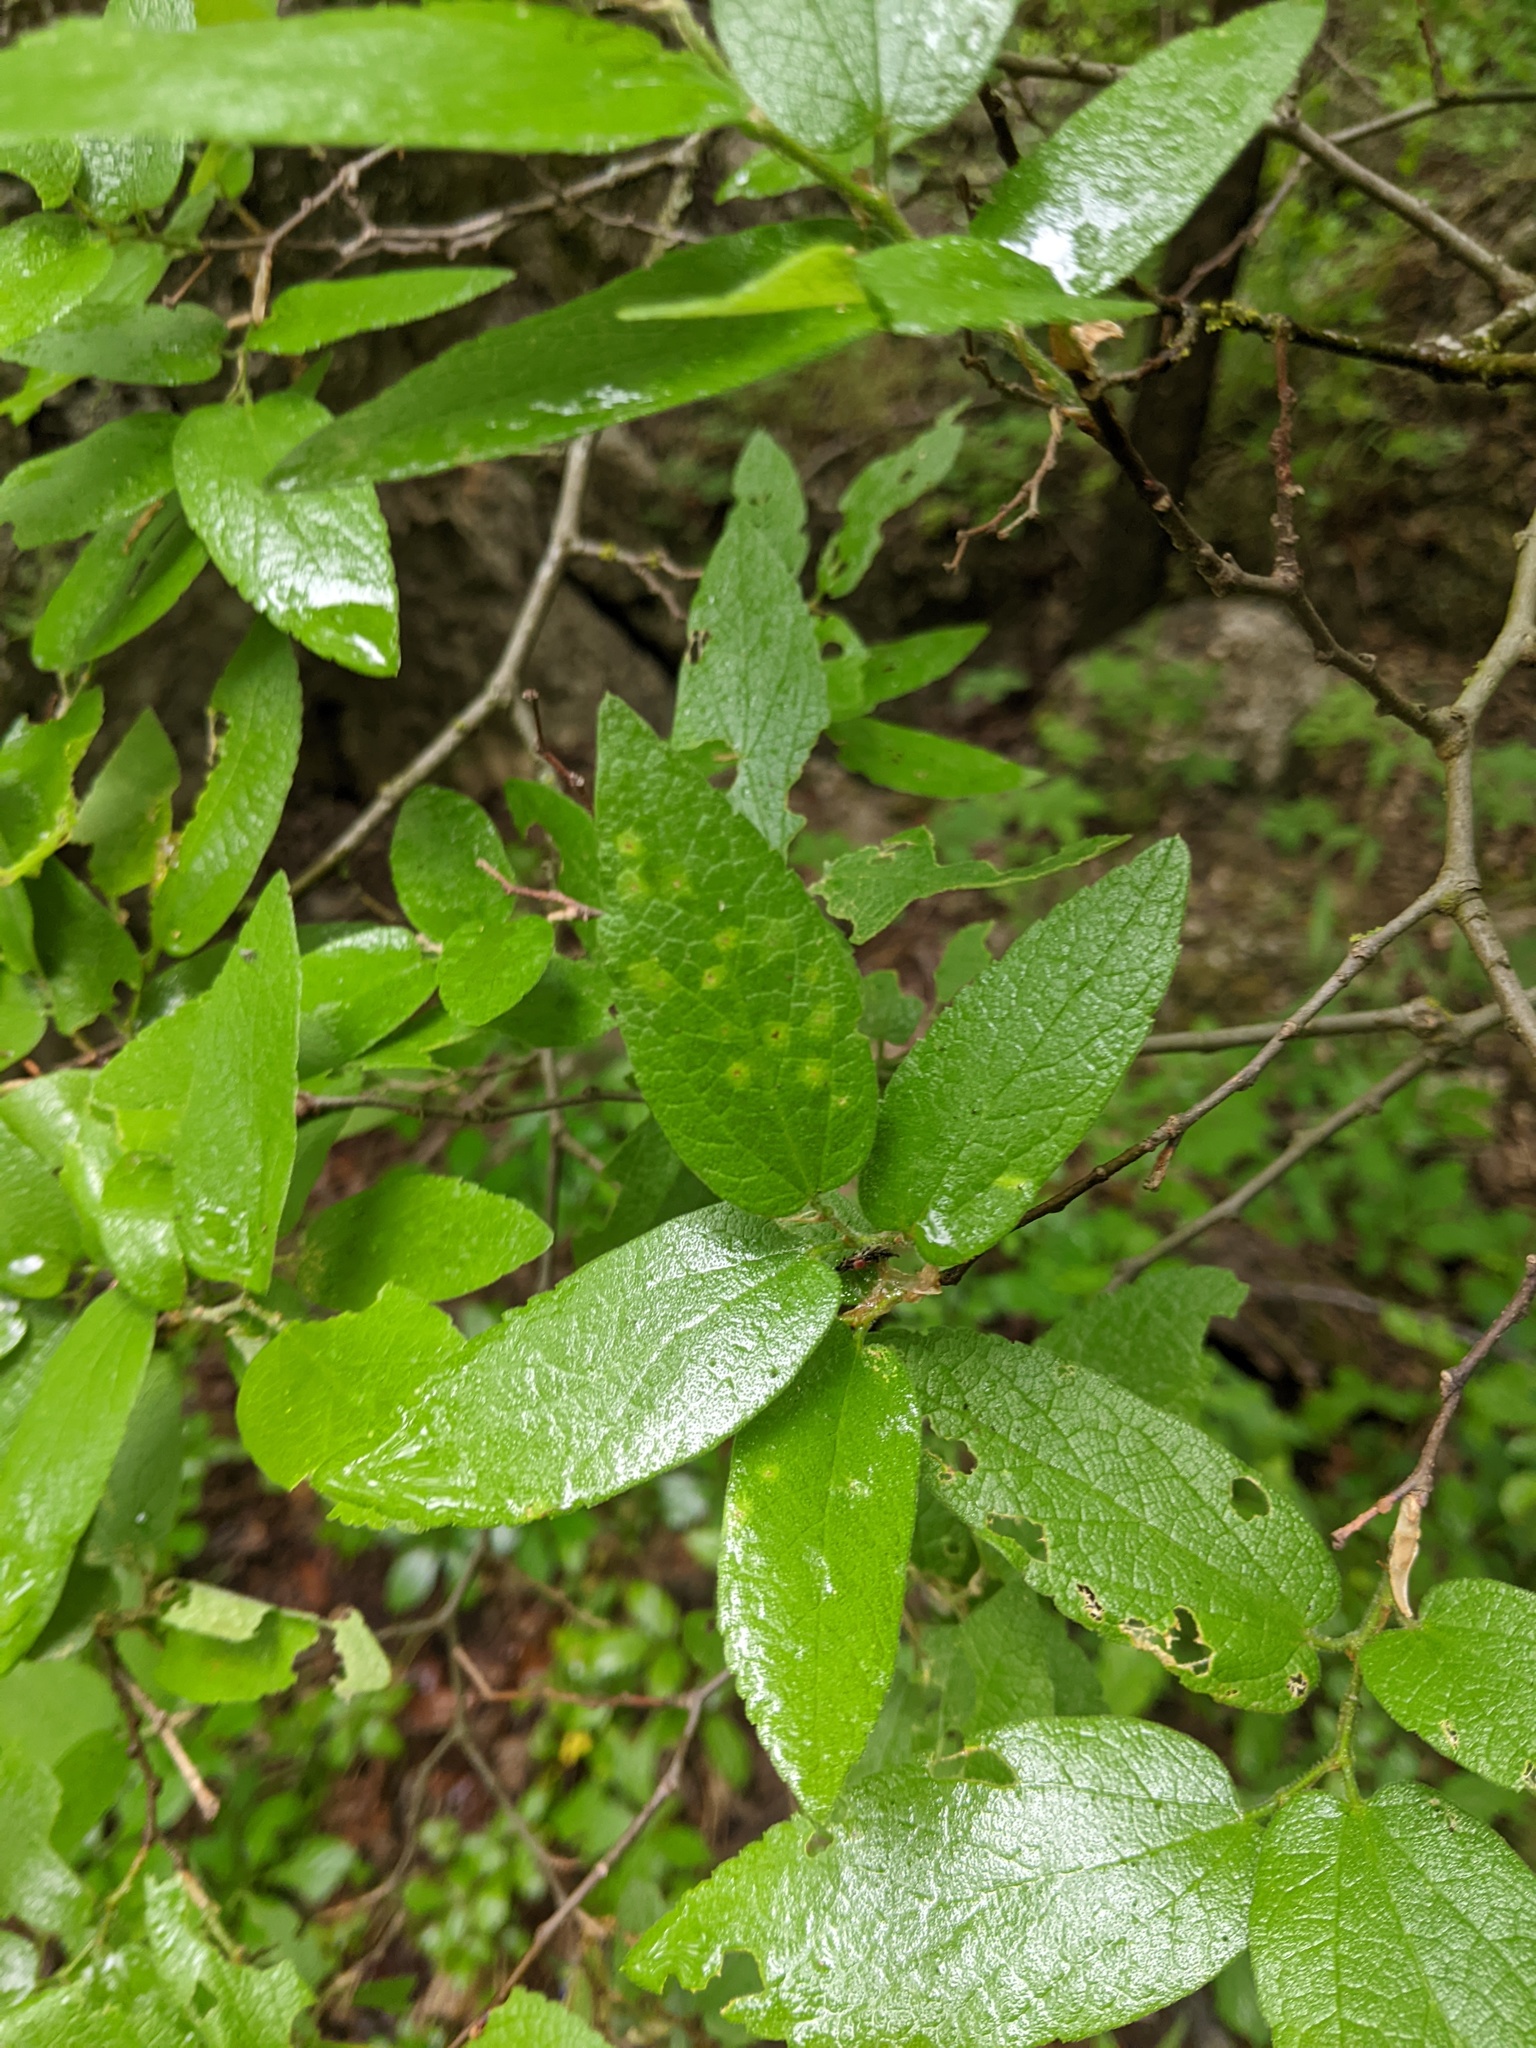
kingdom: Animalia
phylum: Arthropoda
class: Insecta
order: Hemiptera
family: Aphalaridae
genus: Pachypsylla
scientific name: Pachypsylla celtidisvesicula
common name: Hackberry blister gall psyllid
